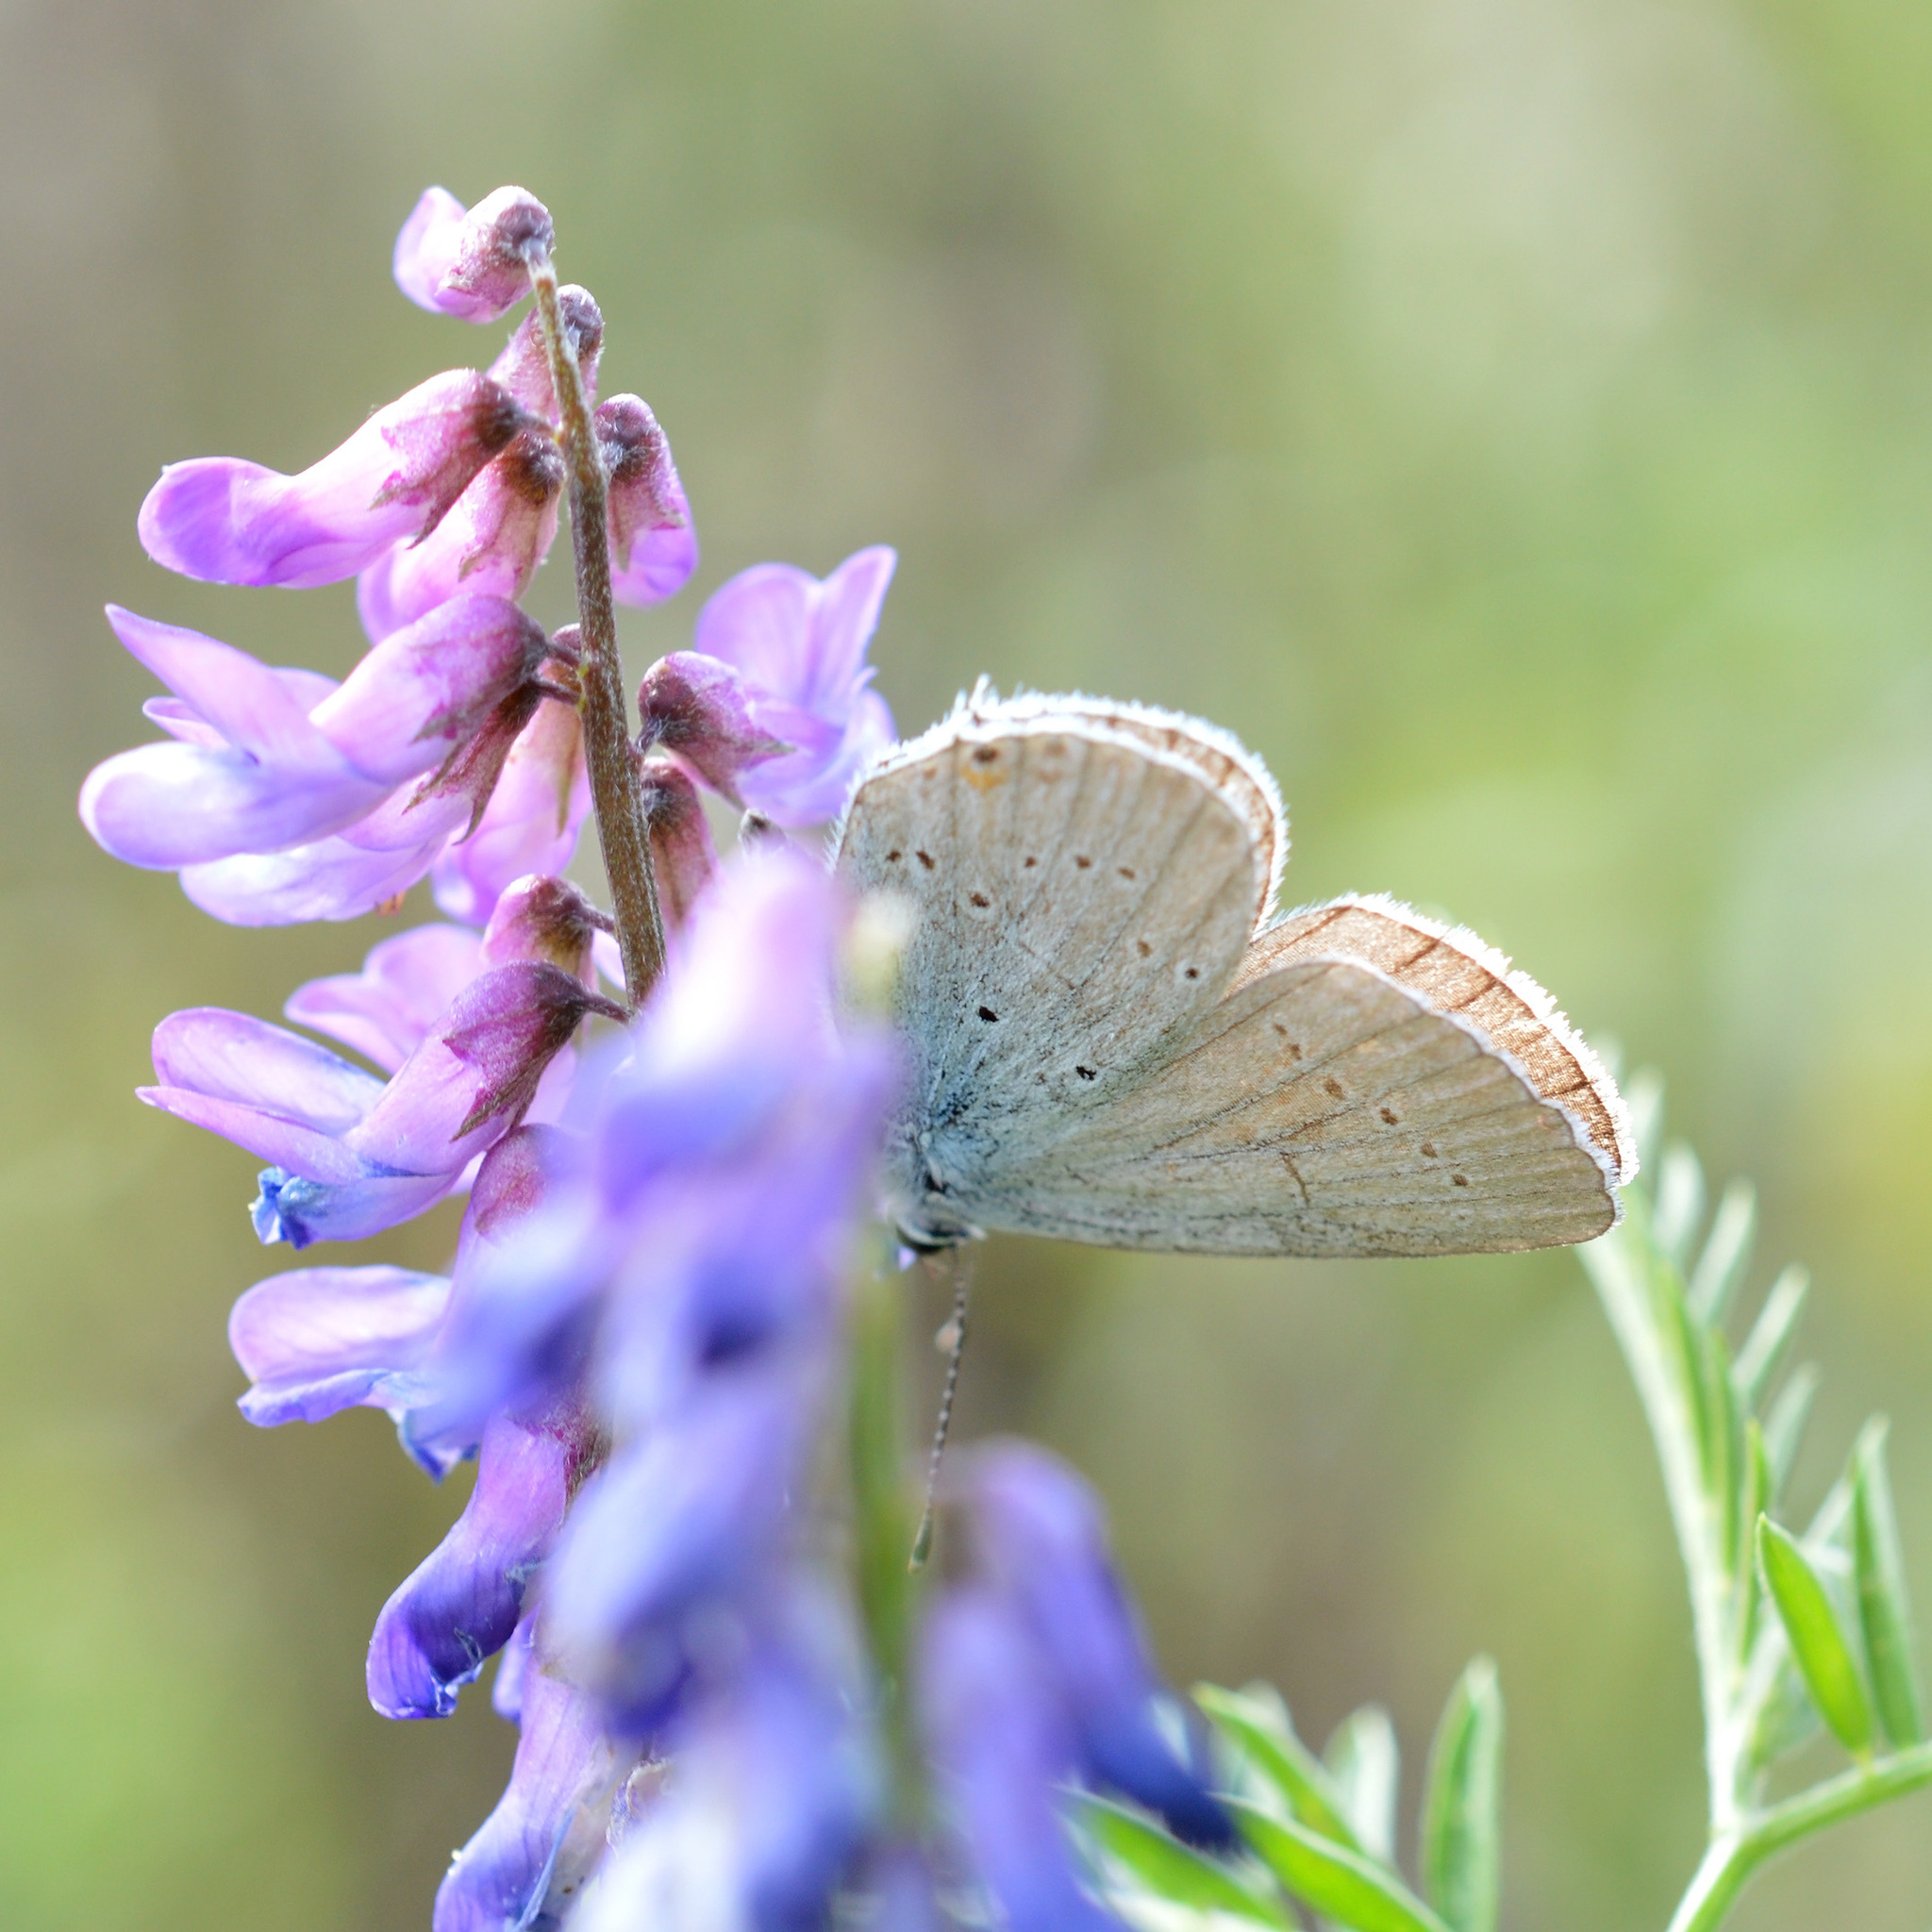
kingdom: Animalia
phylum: Arthropoda
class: Insecta
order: Lepidoptera
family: Lycaenidae
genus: Elkalyce
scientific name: Elkalyce alcetas
